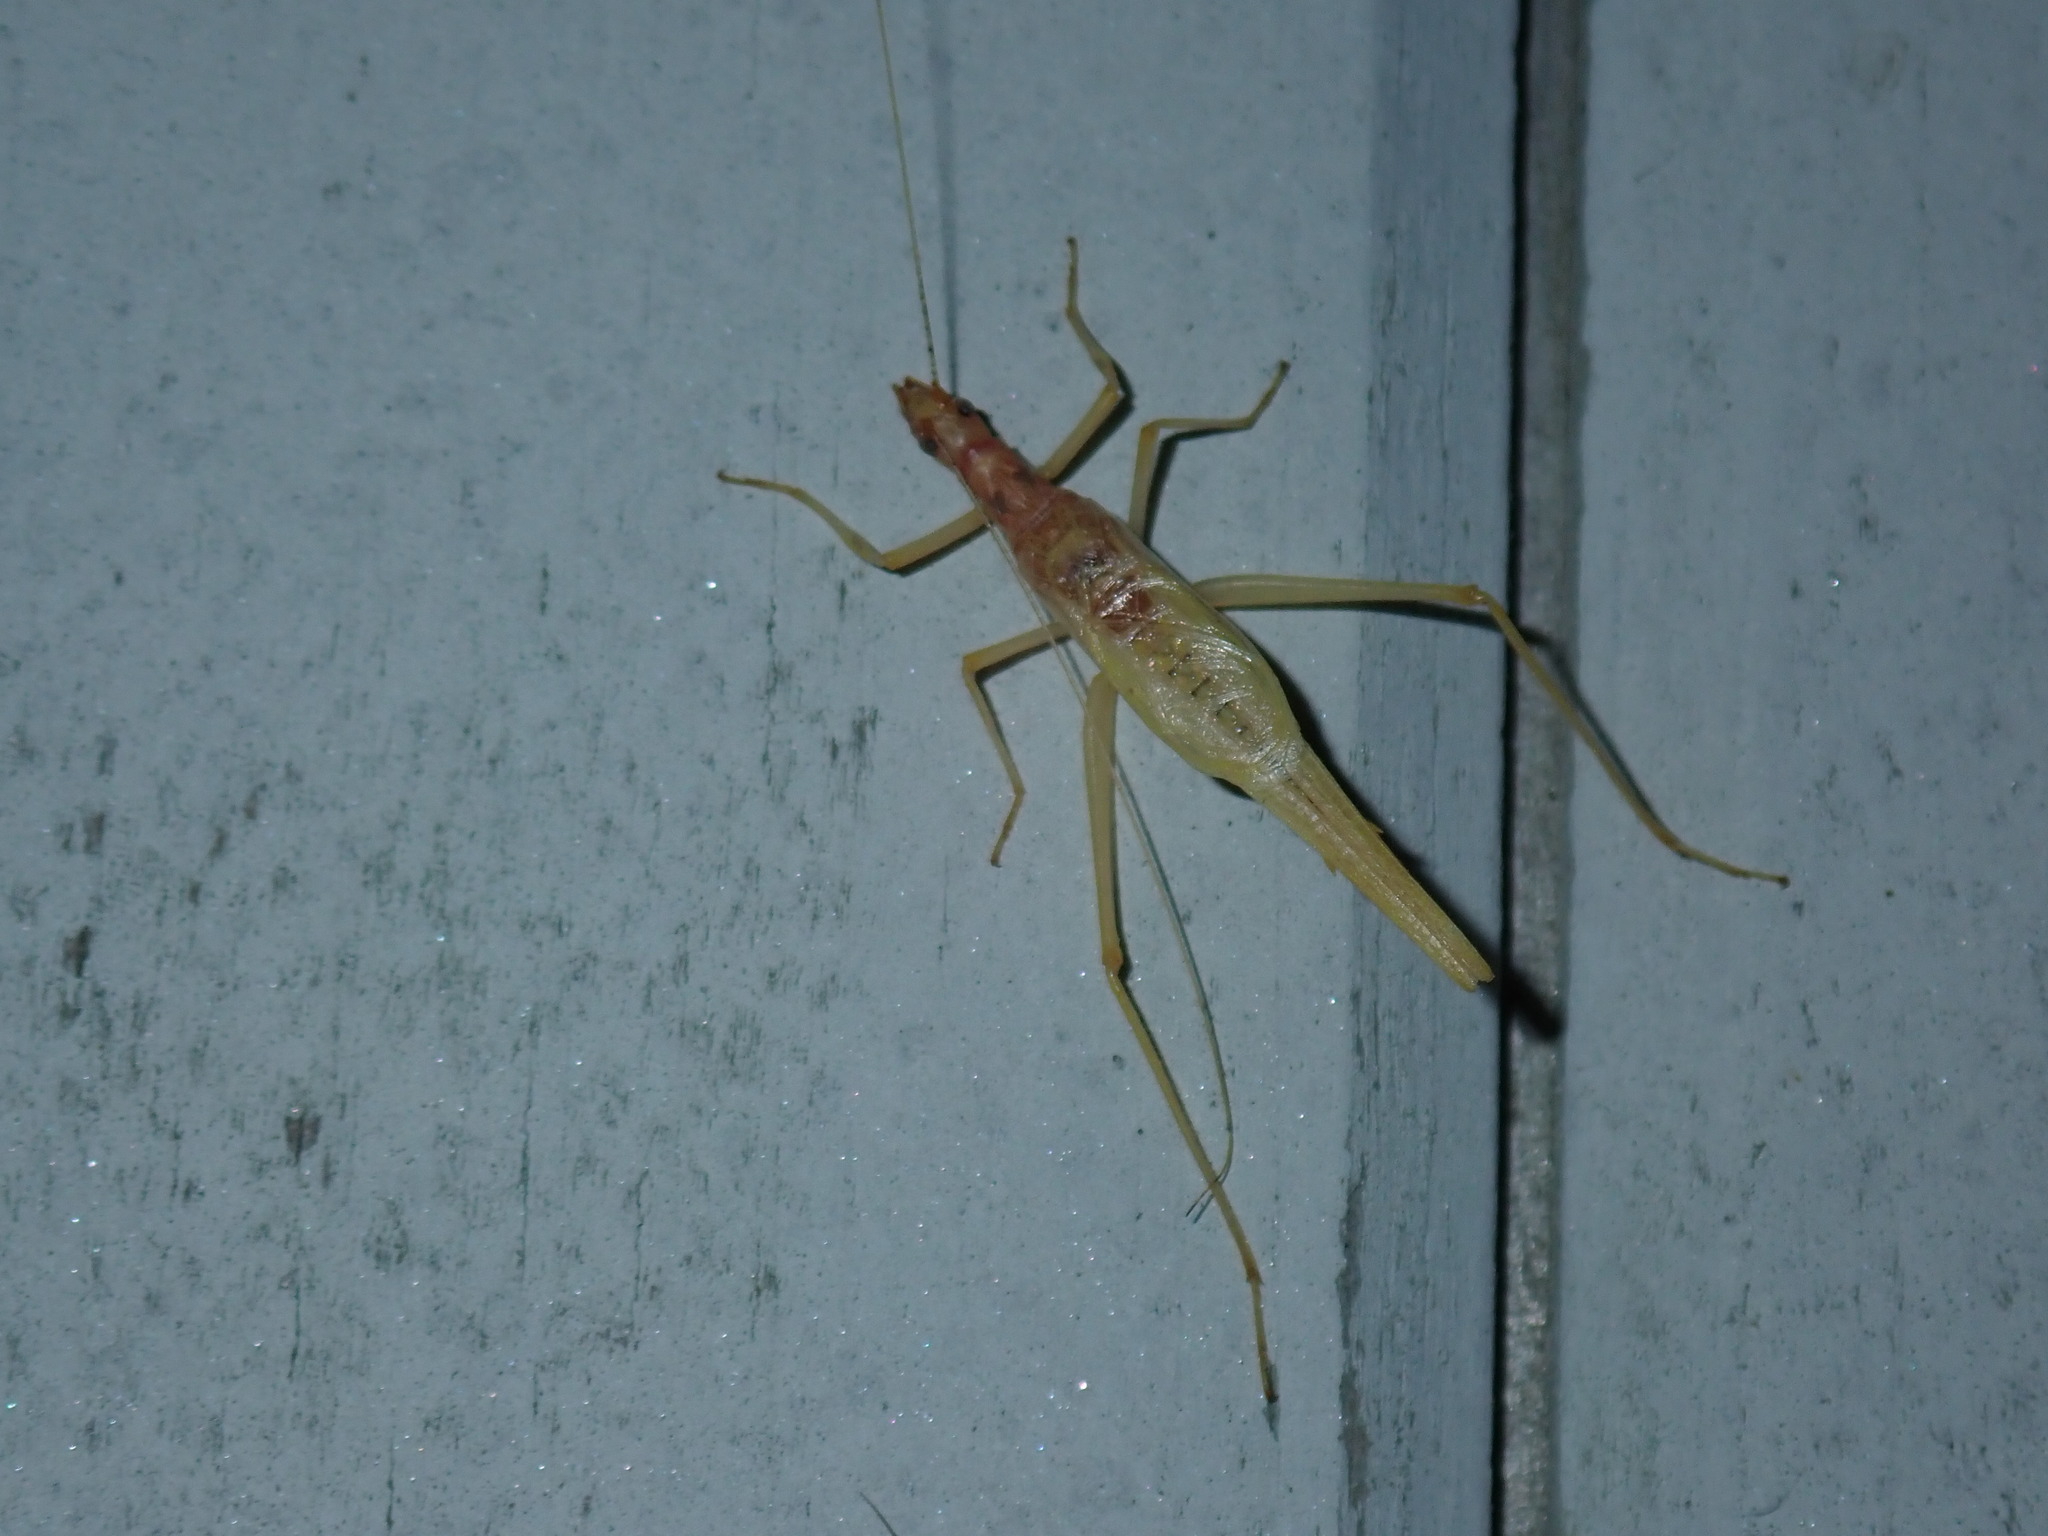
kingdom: Animalia
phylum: Arthropoda
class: Insecta
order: Orthoptera
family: Gryllidae
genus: Neoxabea
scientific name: Neoxabea bipunctata
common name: Two-spotted tree cricket
